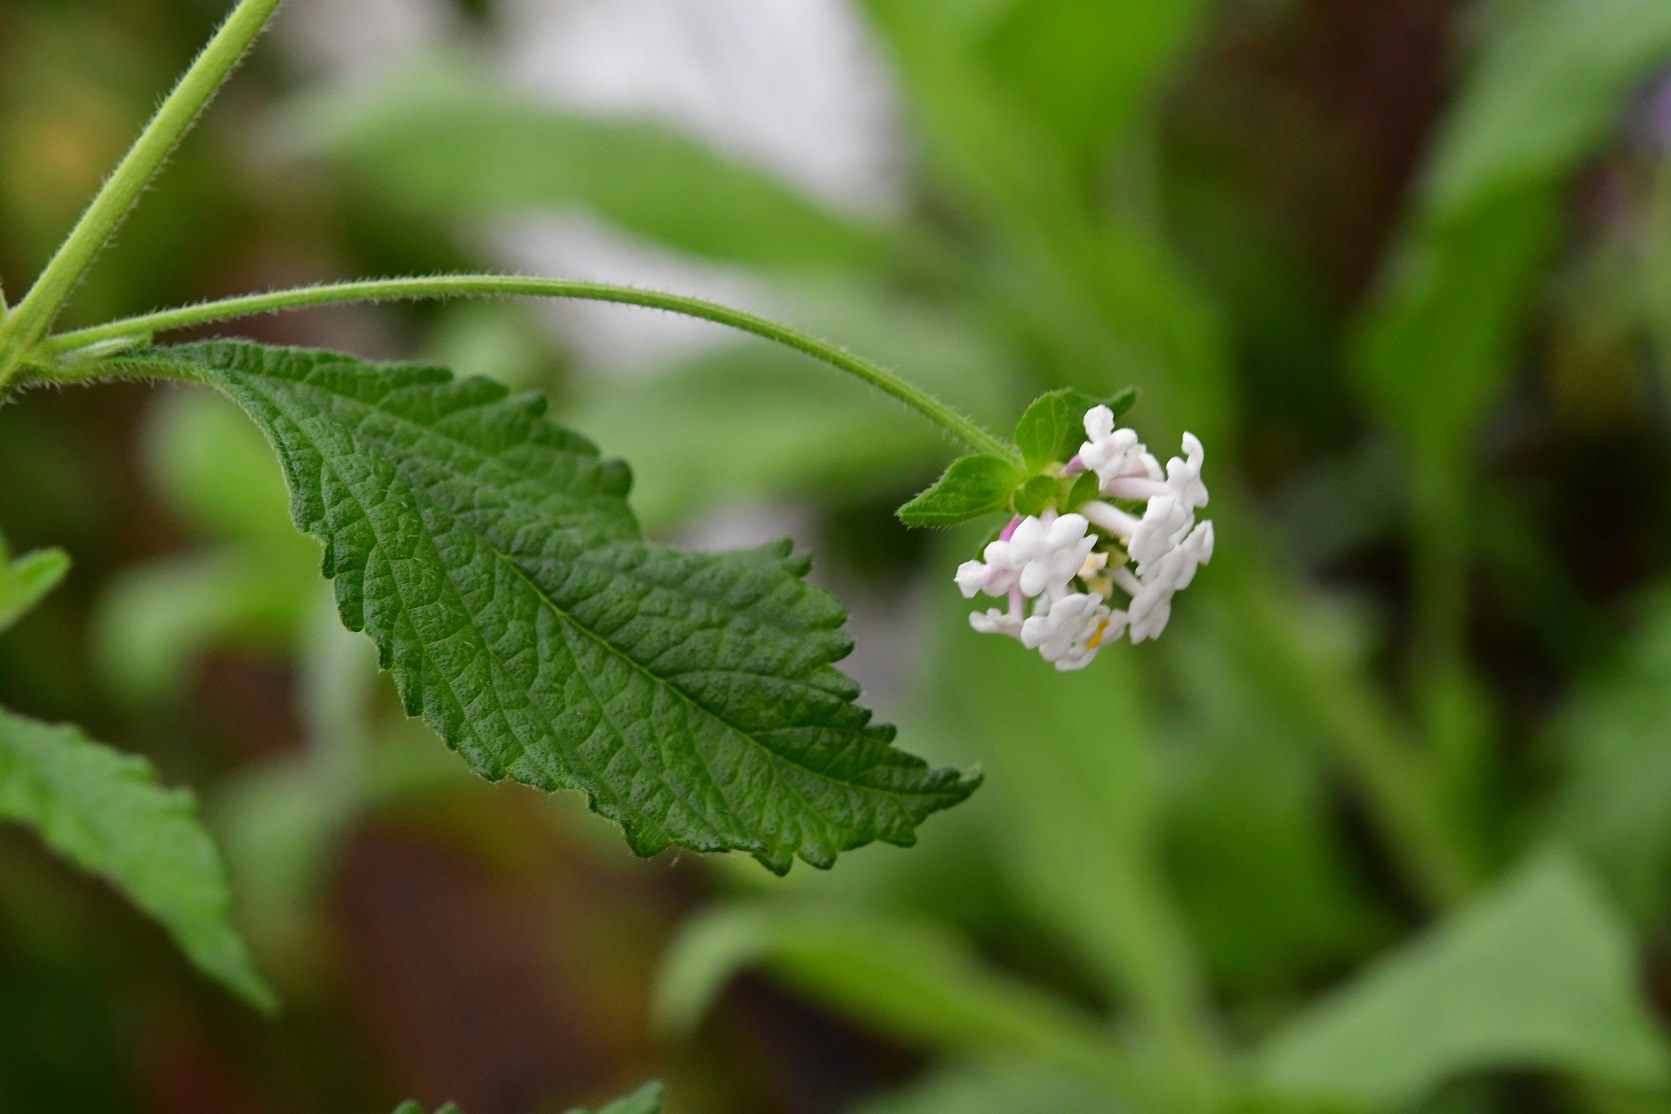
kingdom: Plantae
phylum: Tracheophyta
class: Magnoliopsida
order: Lamiales
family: Verbenaceae
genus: Lantana
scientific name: Lantana hirta
